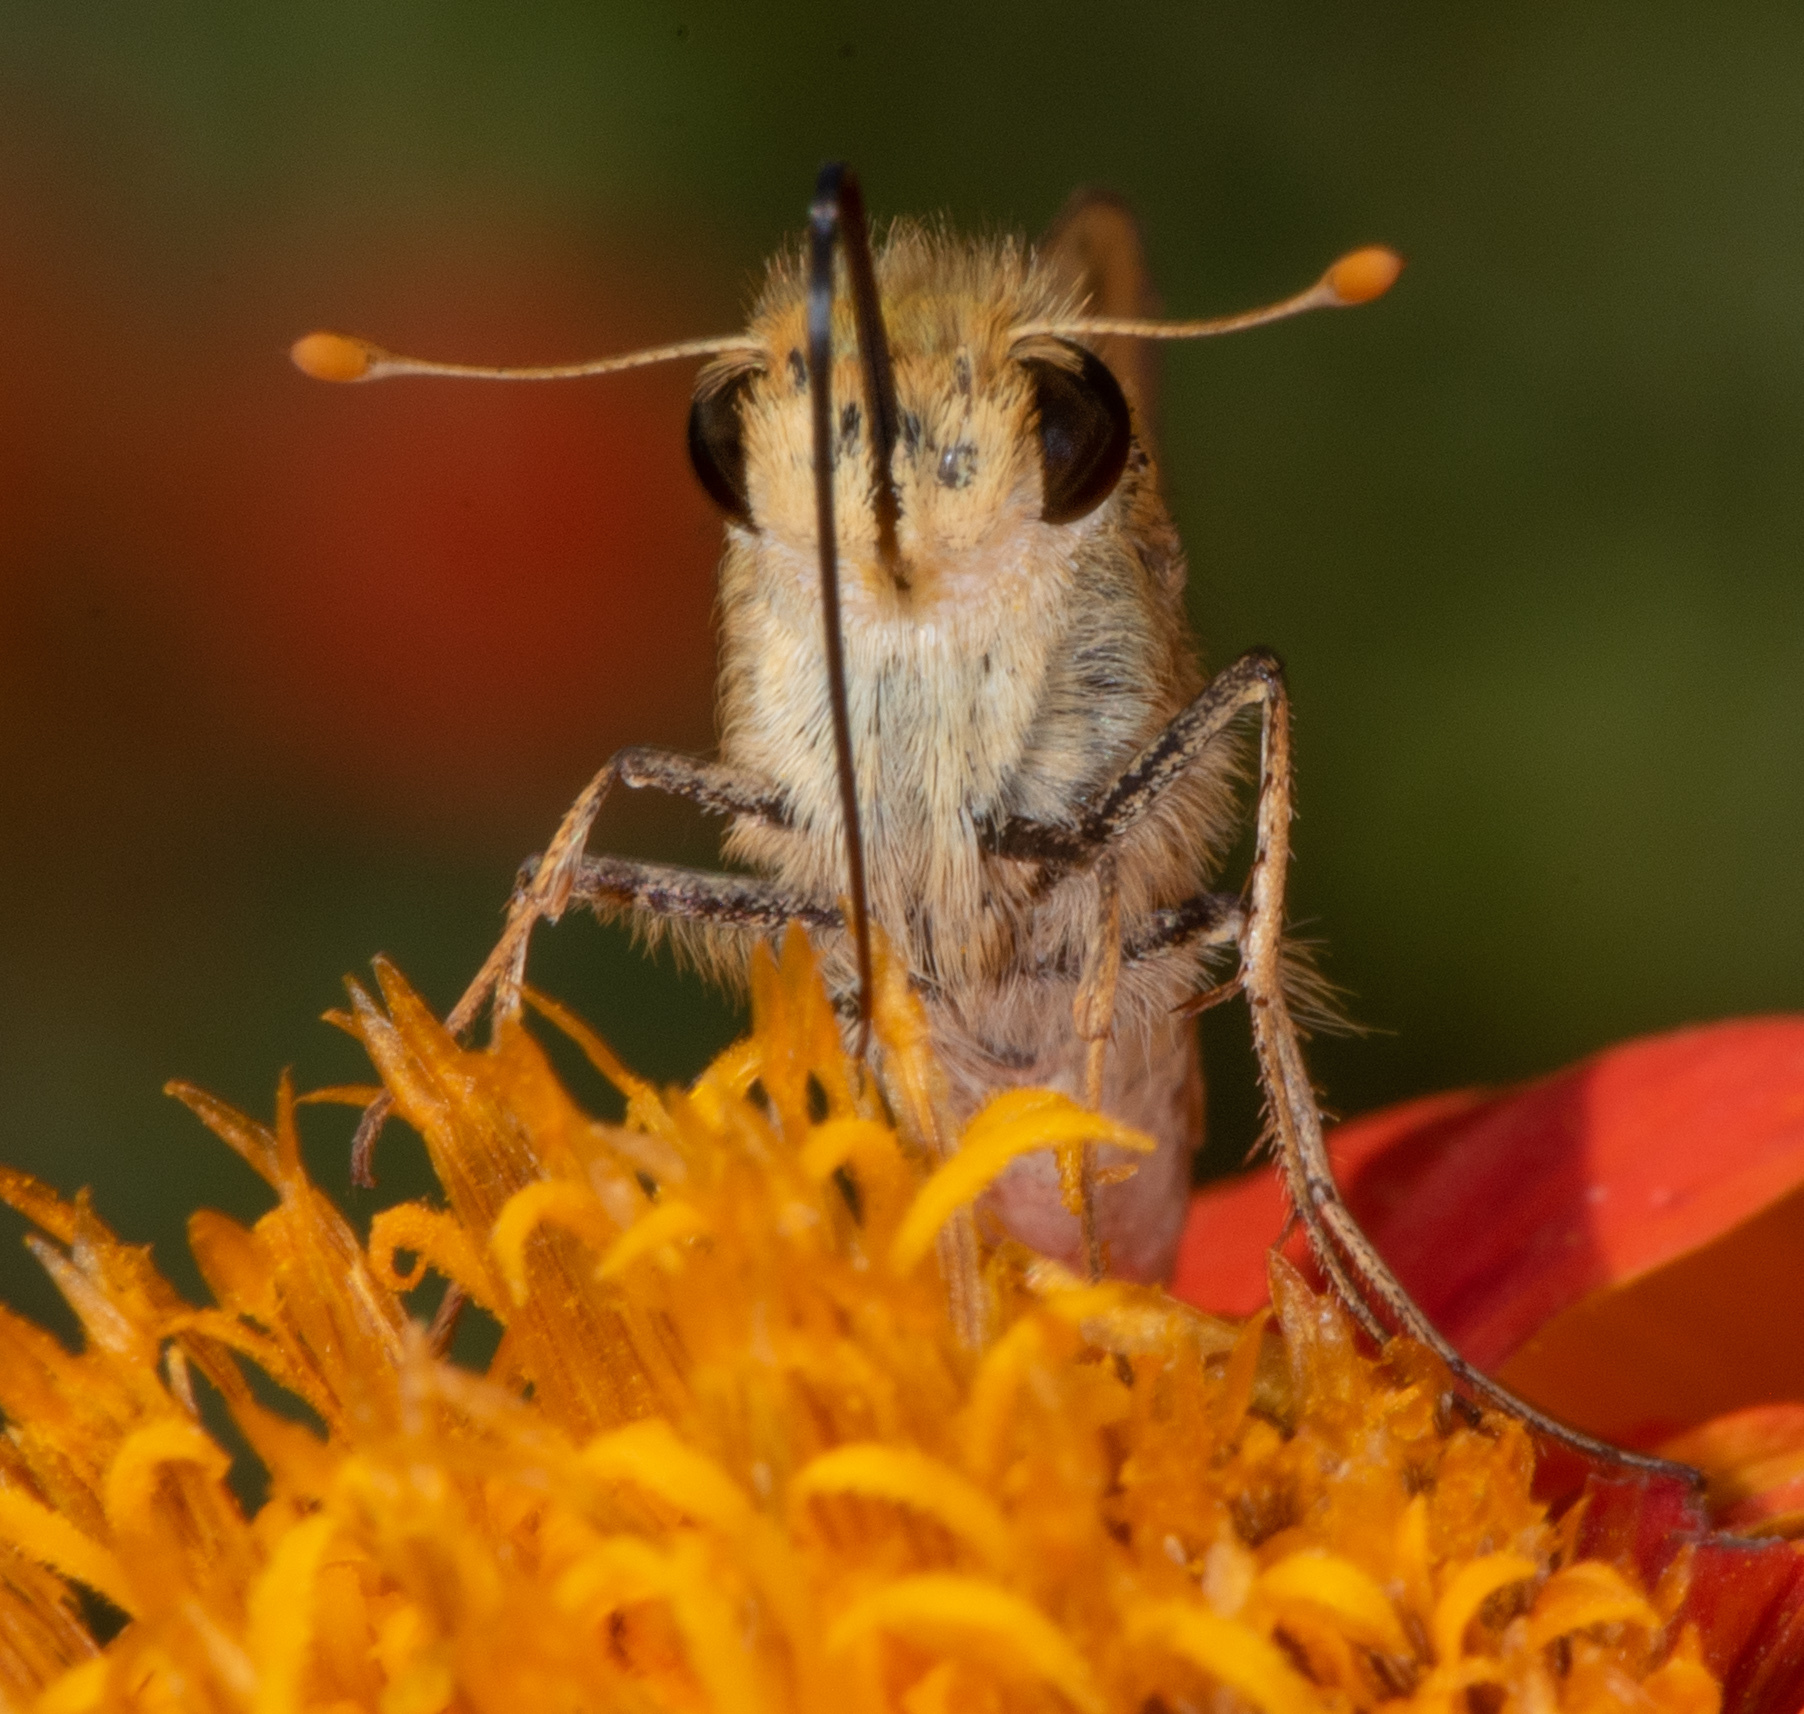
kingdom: Animalia
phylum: Arthropoda
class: Insecta
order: Lepidoptera
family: Hesperiidae
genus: Hylephila
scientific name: Hylephila phyleus
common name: Fiery skipper
